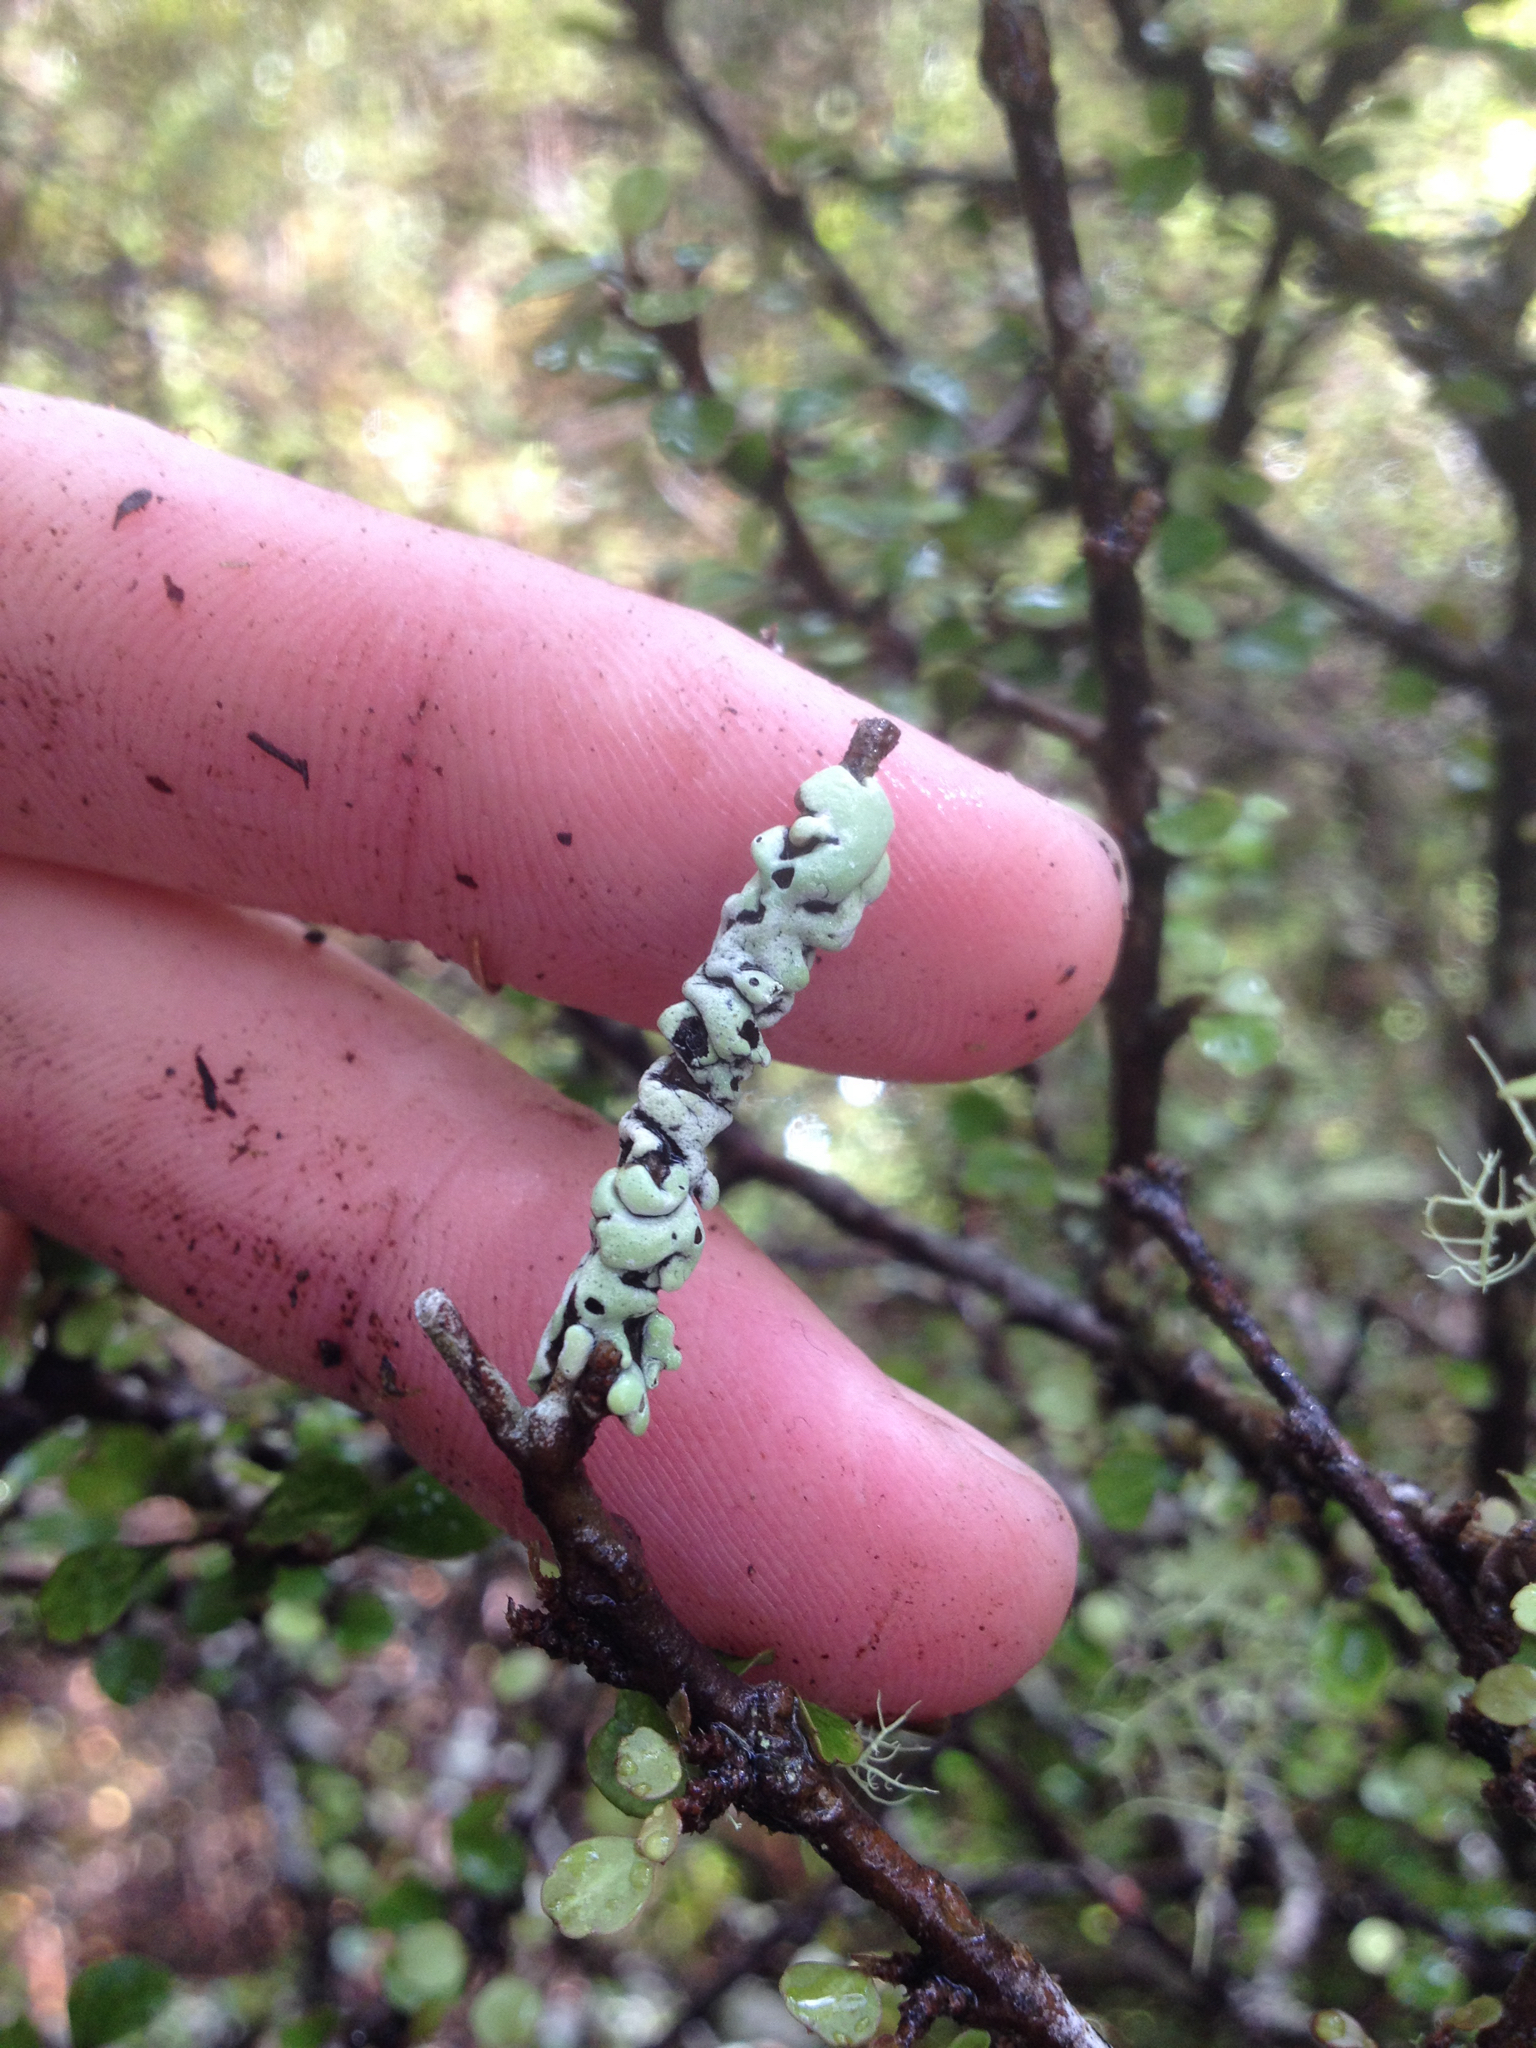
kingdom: Fungi
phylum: Ascomycota
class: Lecanoromycetes
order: Lecanorales
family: Parmeliaceae
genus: Menegazzia
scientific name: Menegazzia neozelandica
